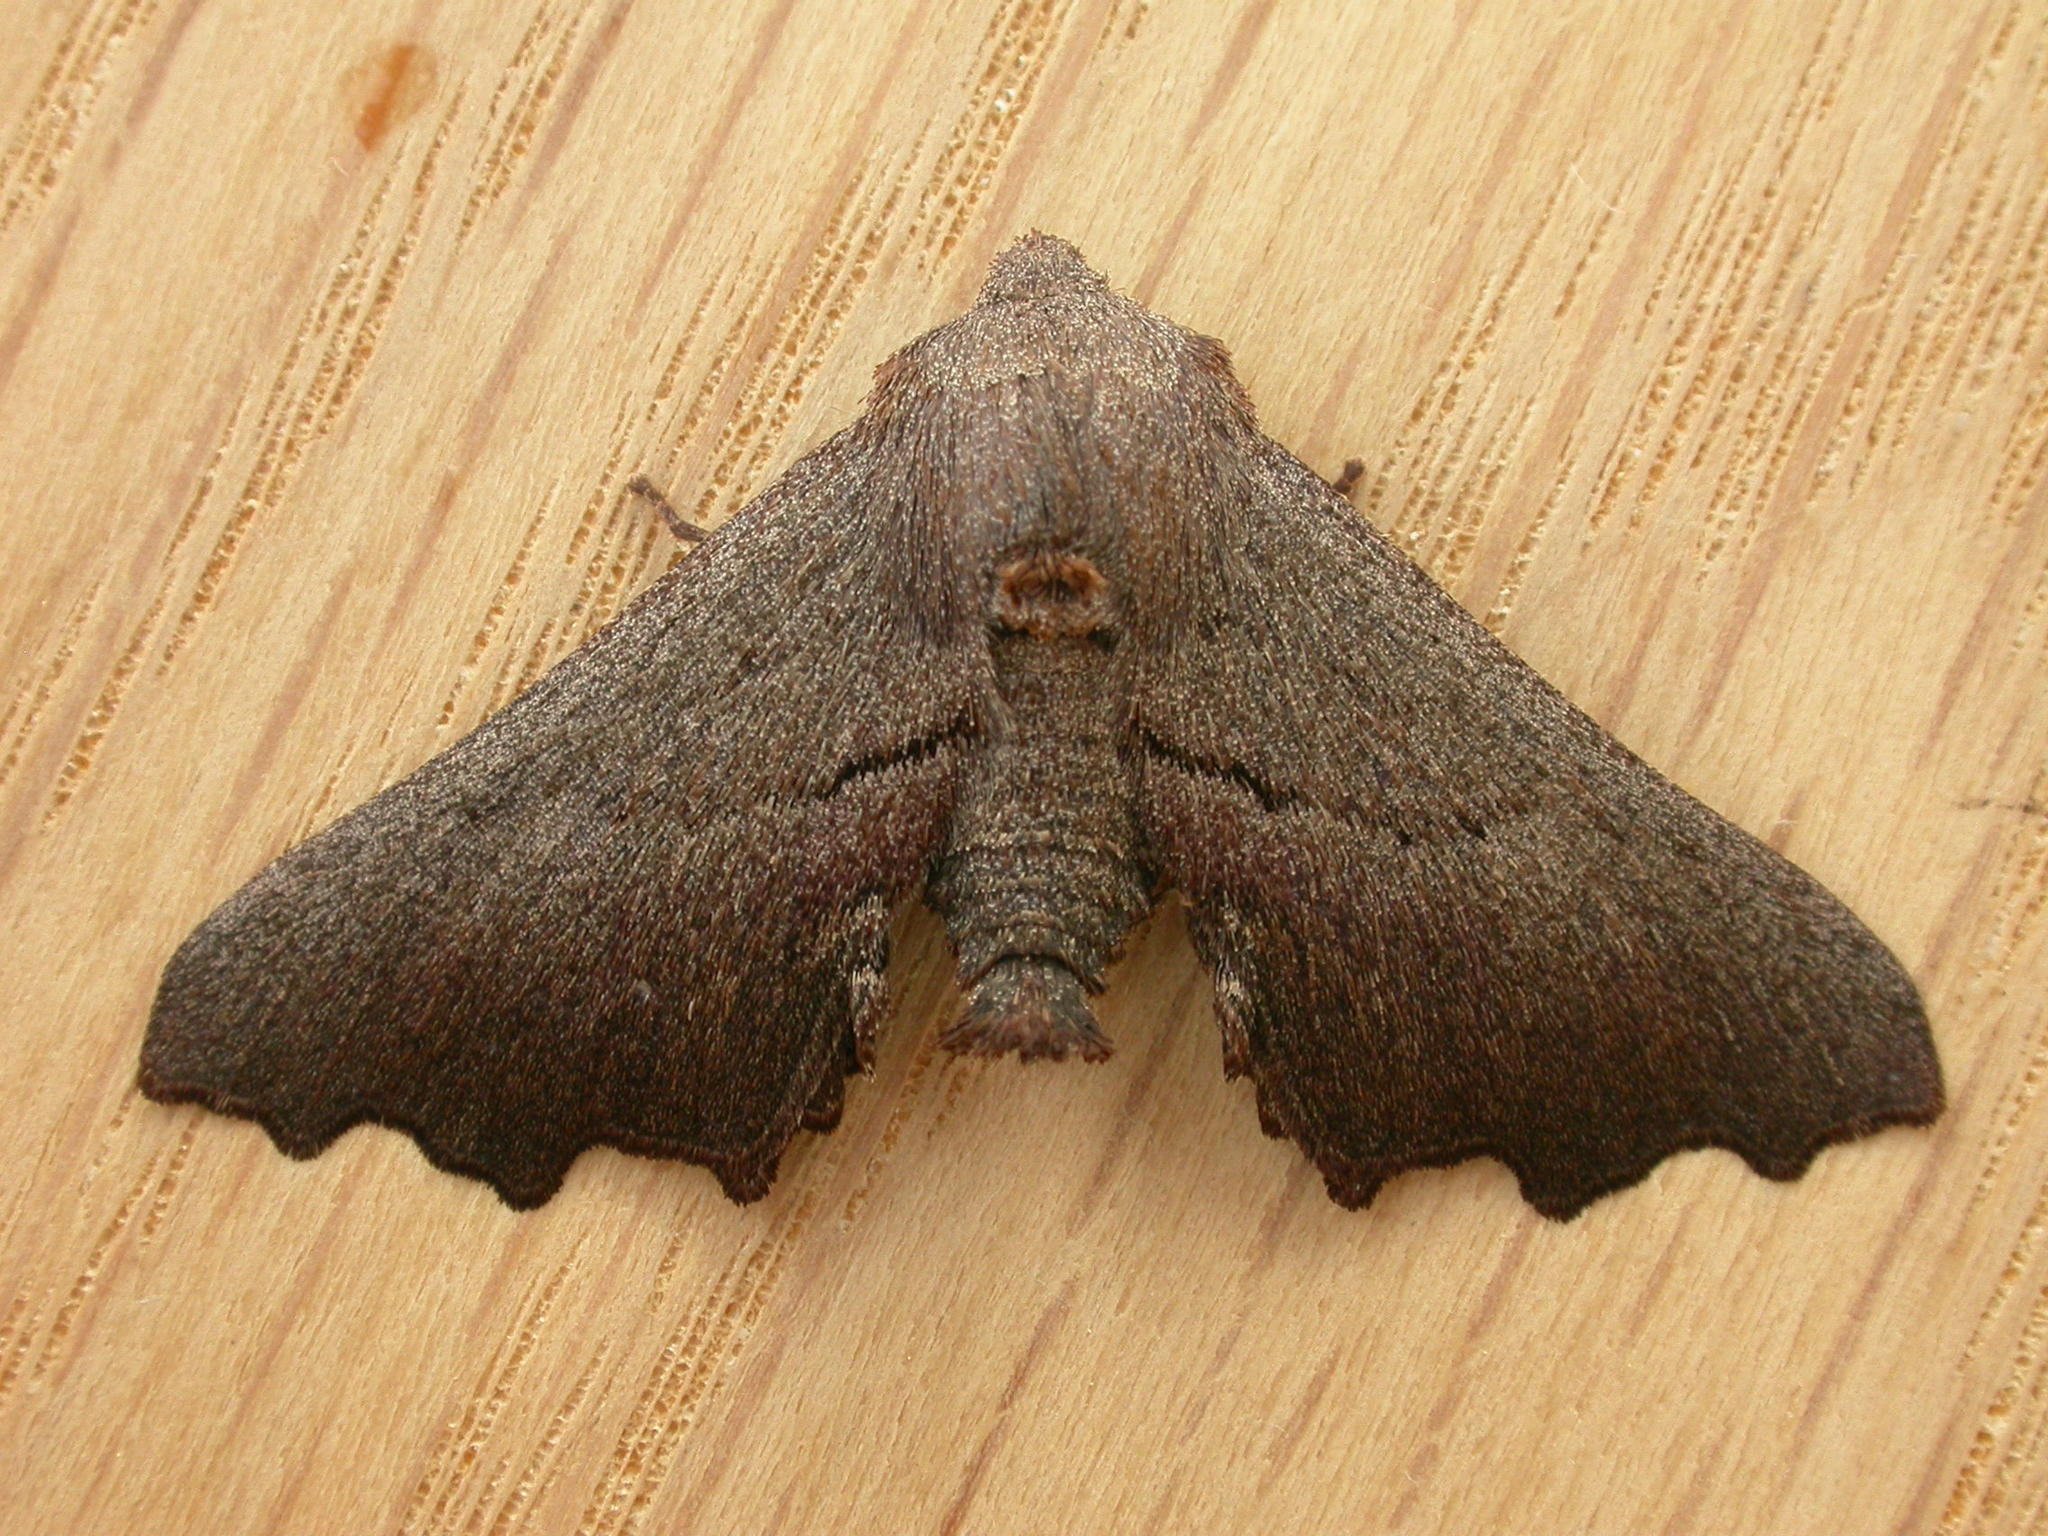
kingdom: Animalia
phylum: Arthropoda
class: Insecta
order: Lepidoptera
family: Geometridae
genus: Amphiclasta
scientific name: Amphiclasta lygaea
